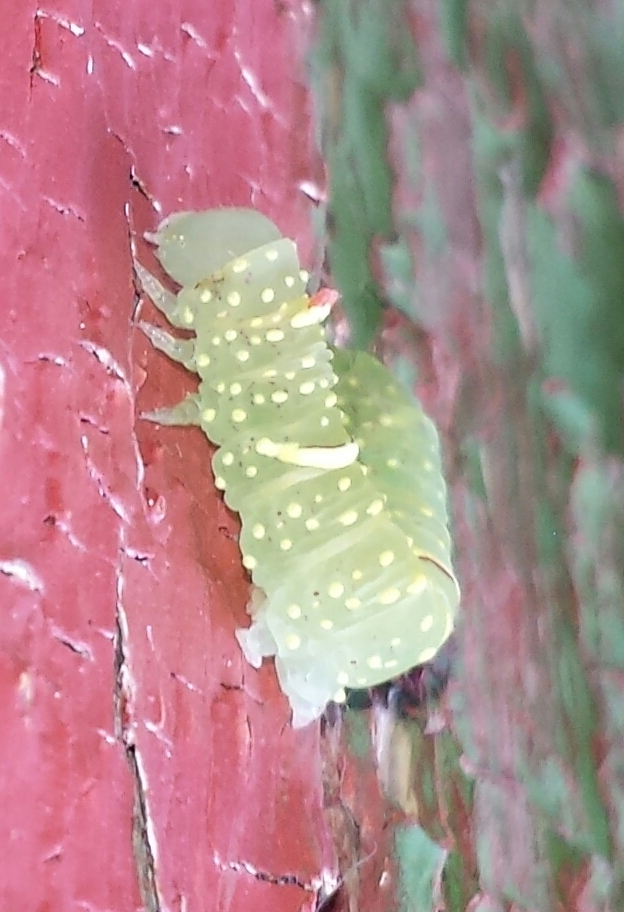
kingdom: Animalia
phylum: Arthropoda
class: Insecta
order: Lepidoptera
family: Noctuidae
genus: Raphia
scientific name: Raphia frater
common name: Brother
